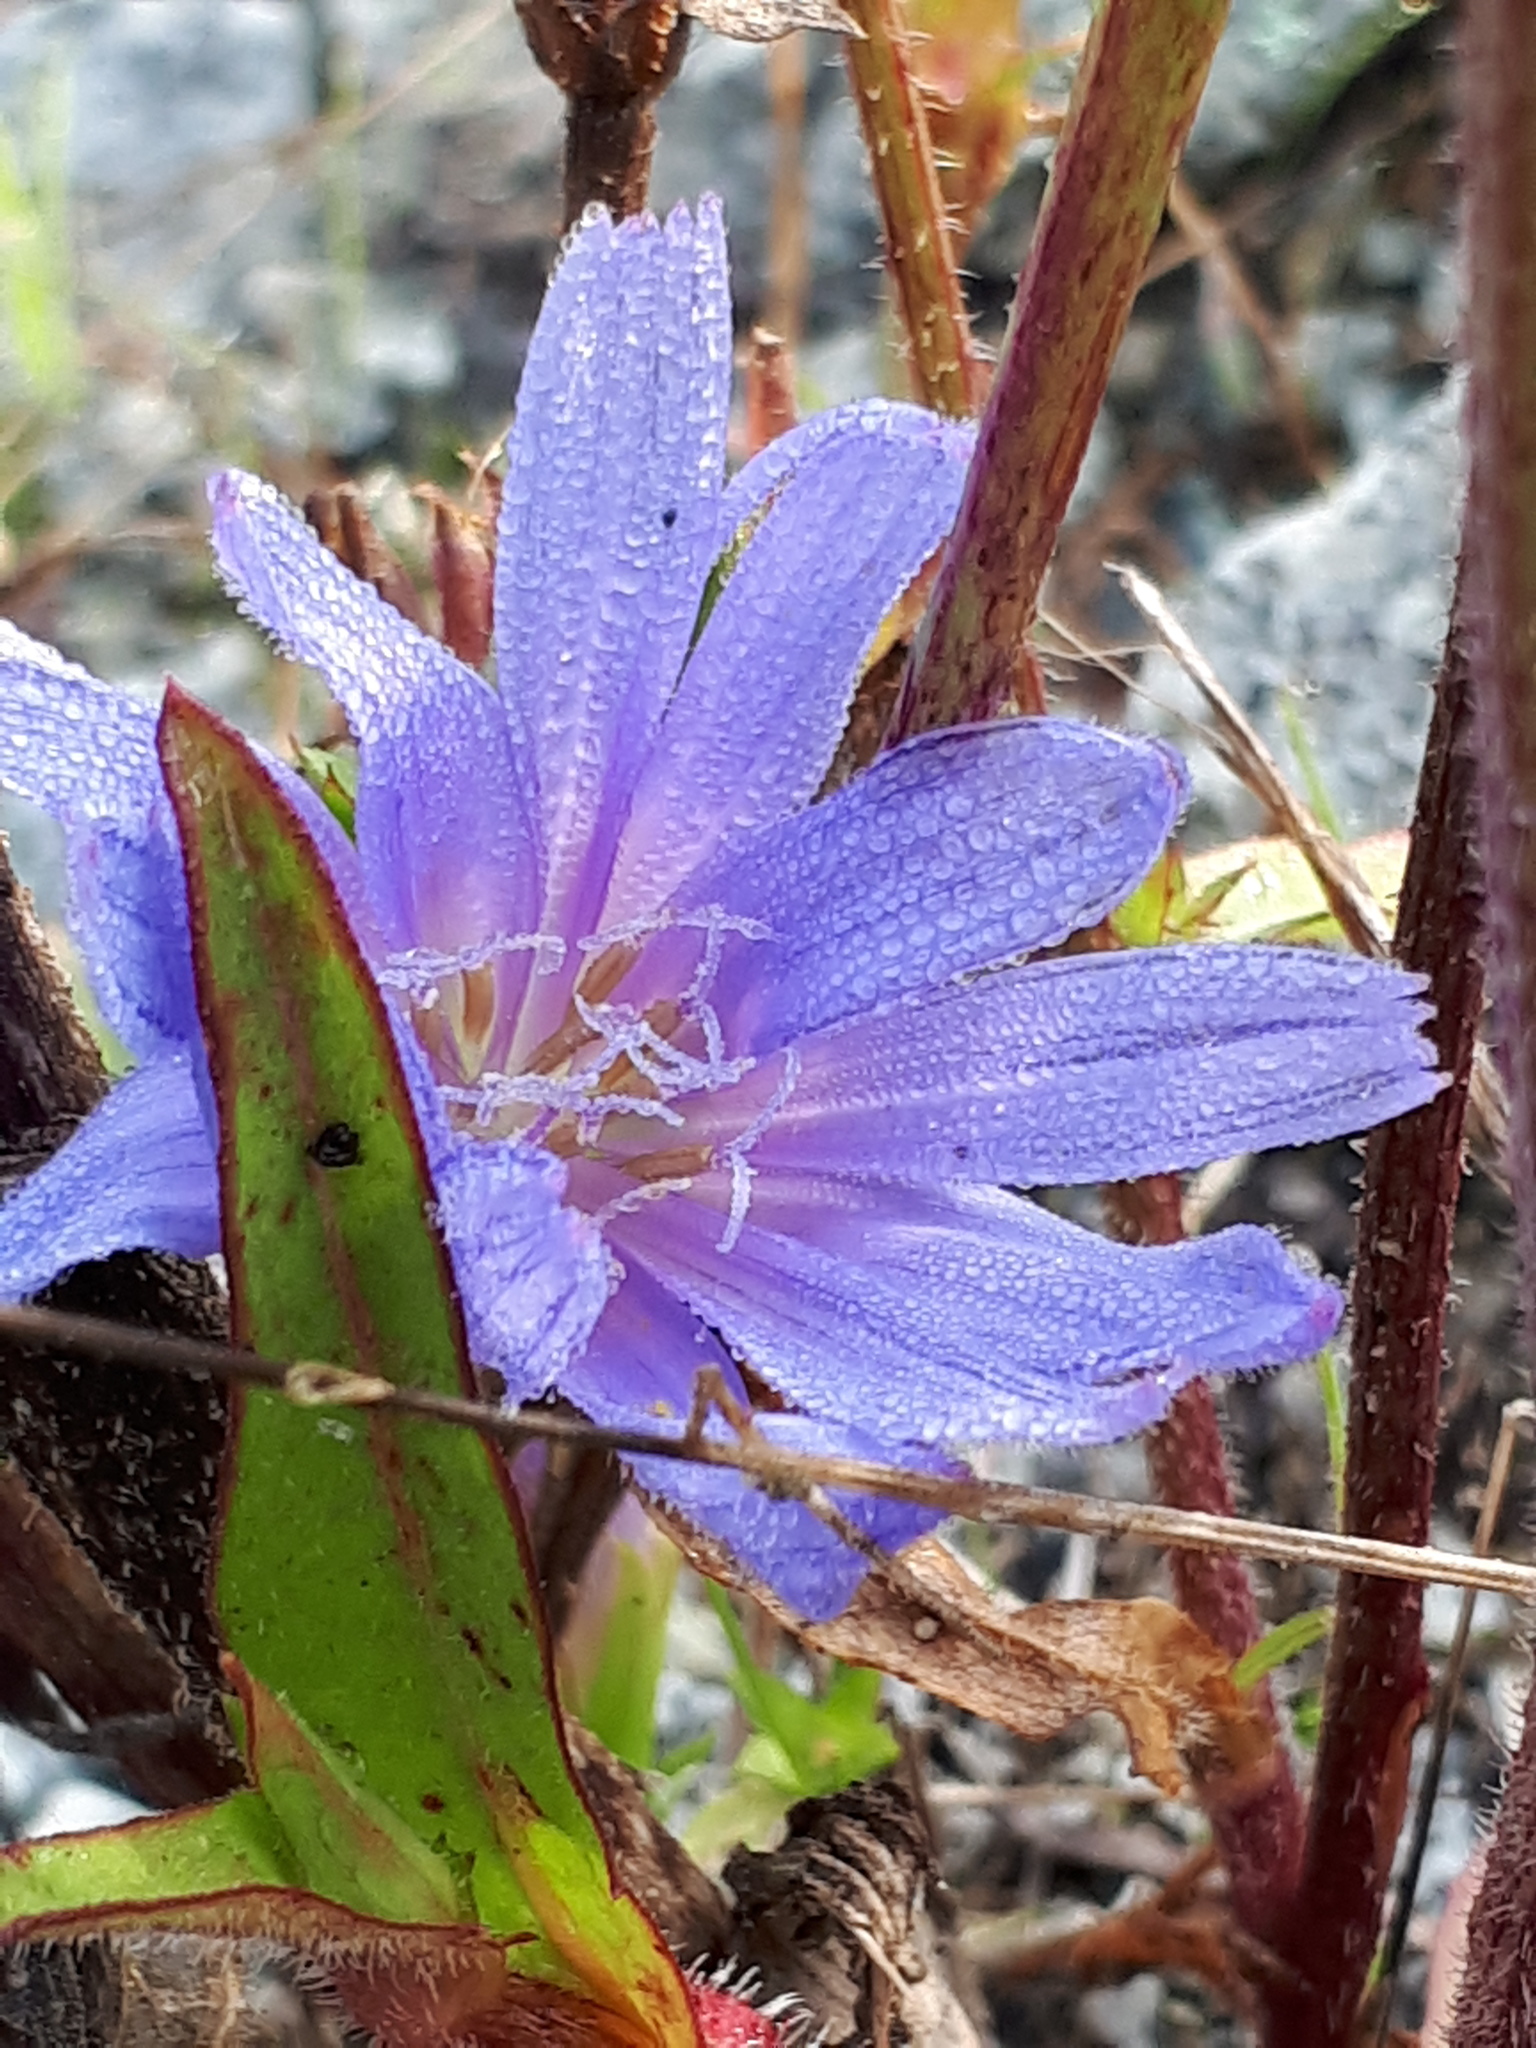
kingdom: Plantae
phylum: Tracheophyta
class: Magnoliopsida
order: Asterales
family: Asteraceae
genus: Cichorium
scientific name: Cichorium intybus
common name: Chicory
